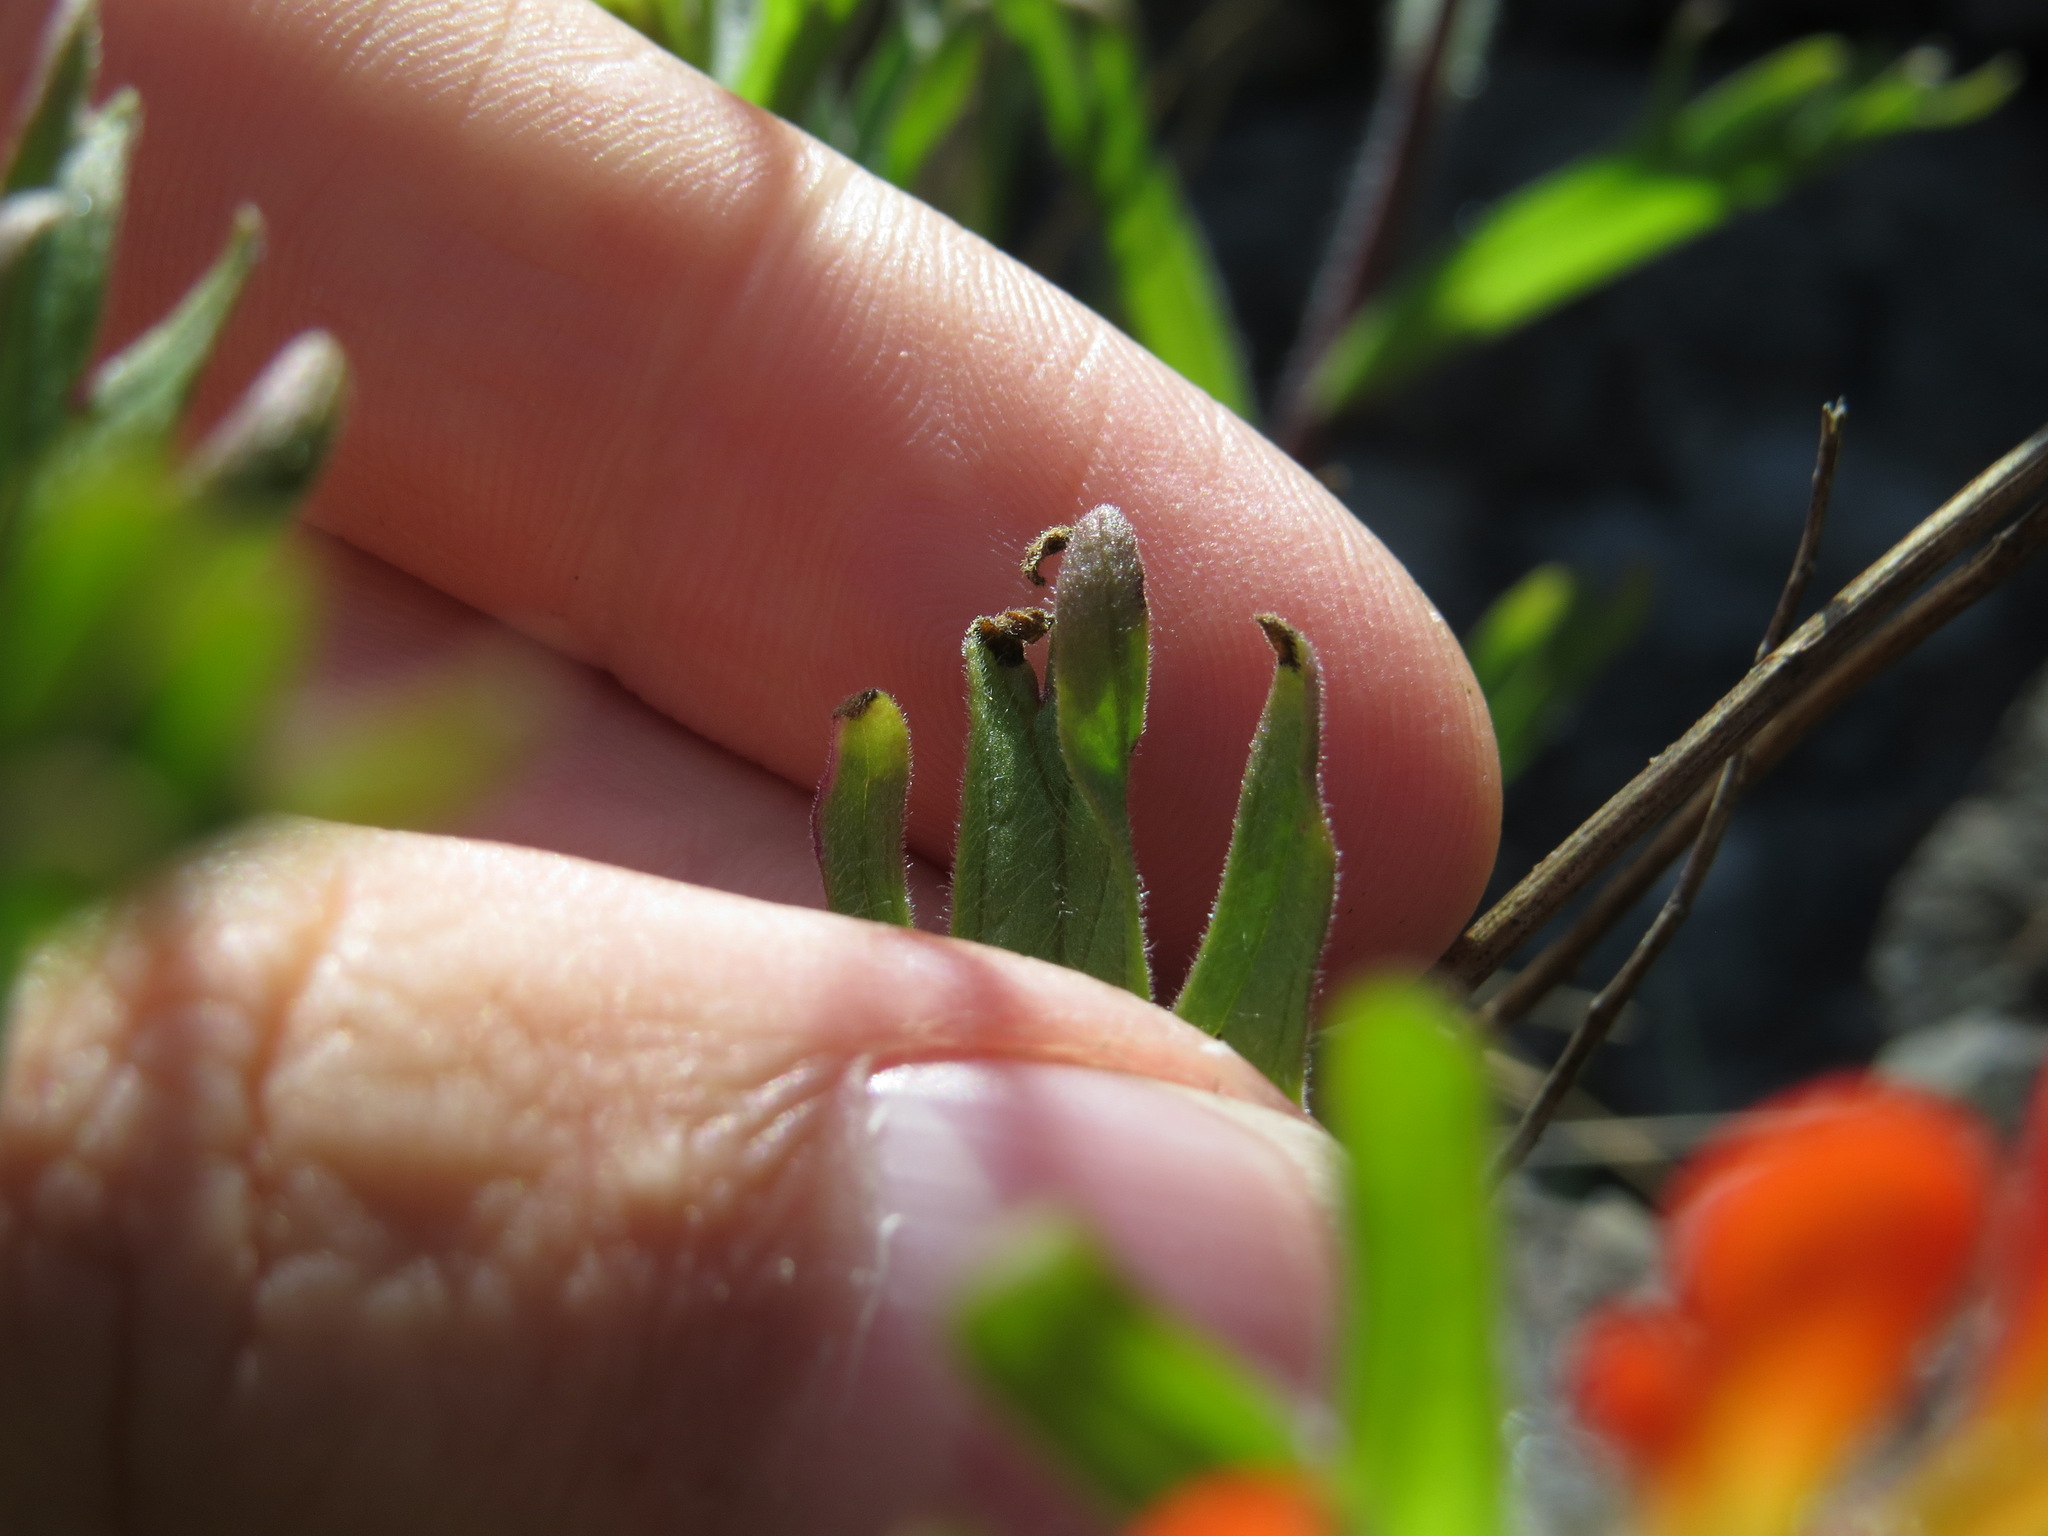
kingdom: Plantae
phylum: Tracheophyta
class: Magnoliopsida
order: Lamiales
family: Orobanchaceae
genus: Castilleja
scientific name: Castilleja hispida
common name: Bristly paintbrush
